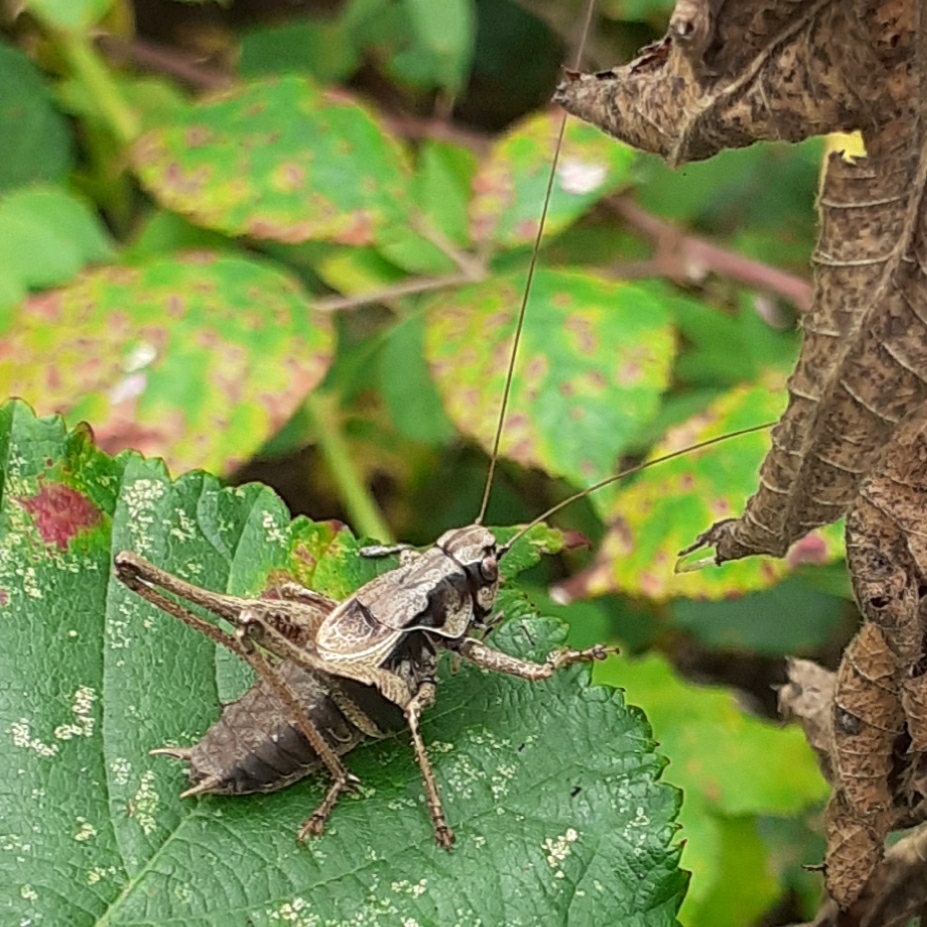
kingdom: Animalia
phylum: Arthropoda
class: Insecta
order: Orthoptera
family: Tettigoniidae
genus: Pholidoptera
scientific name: Pholidoptera griseoaptera
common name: Dark bush-cricket
